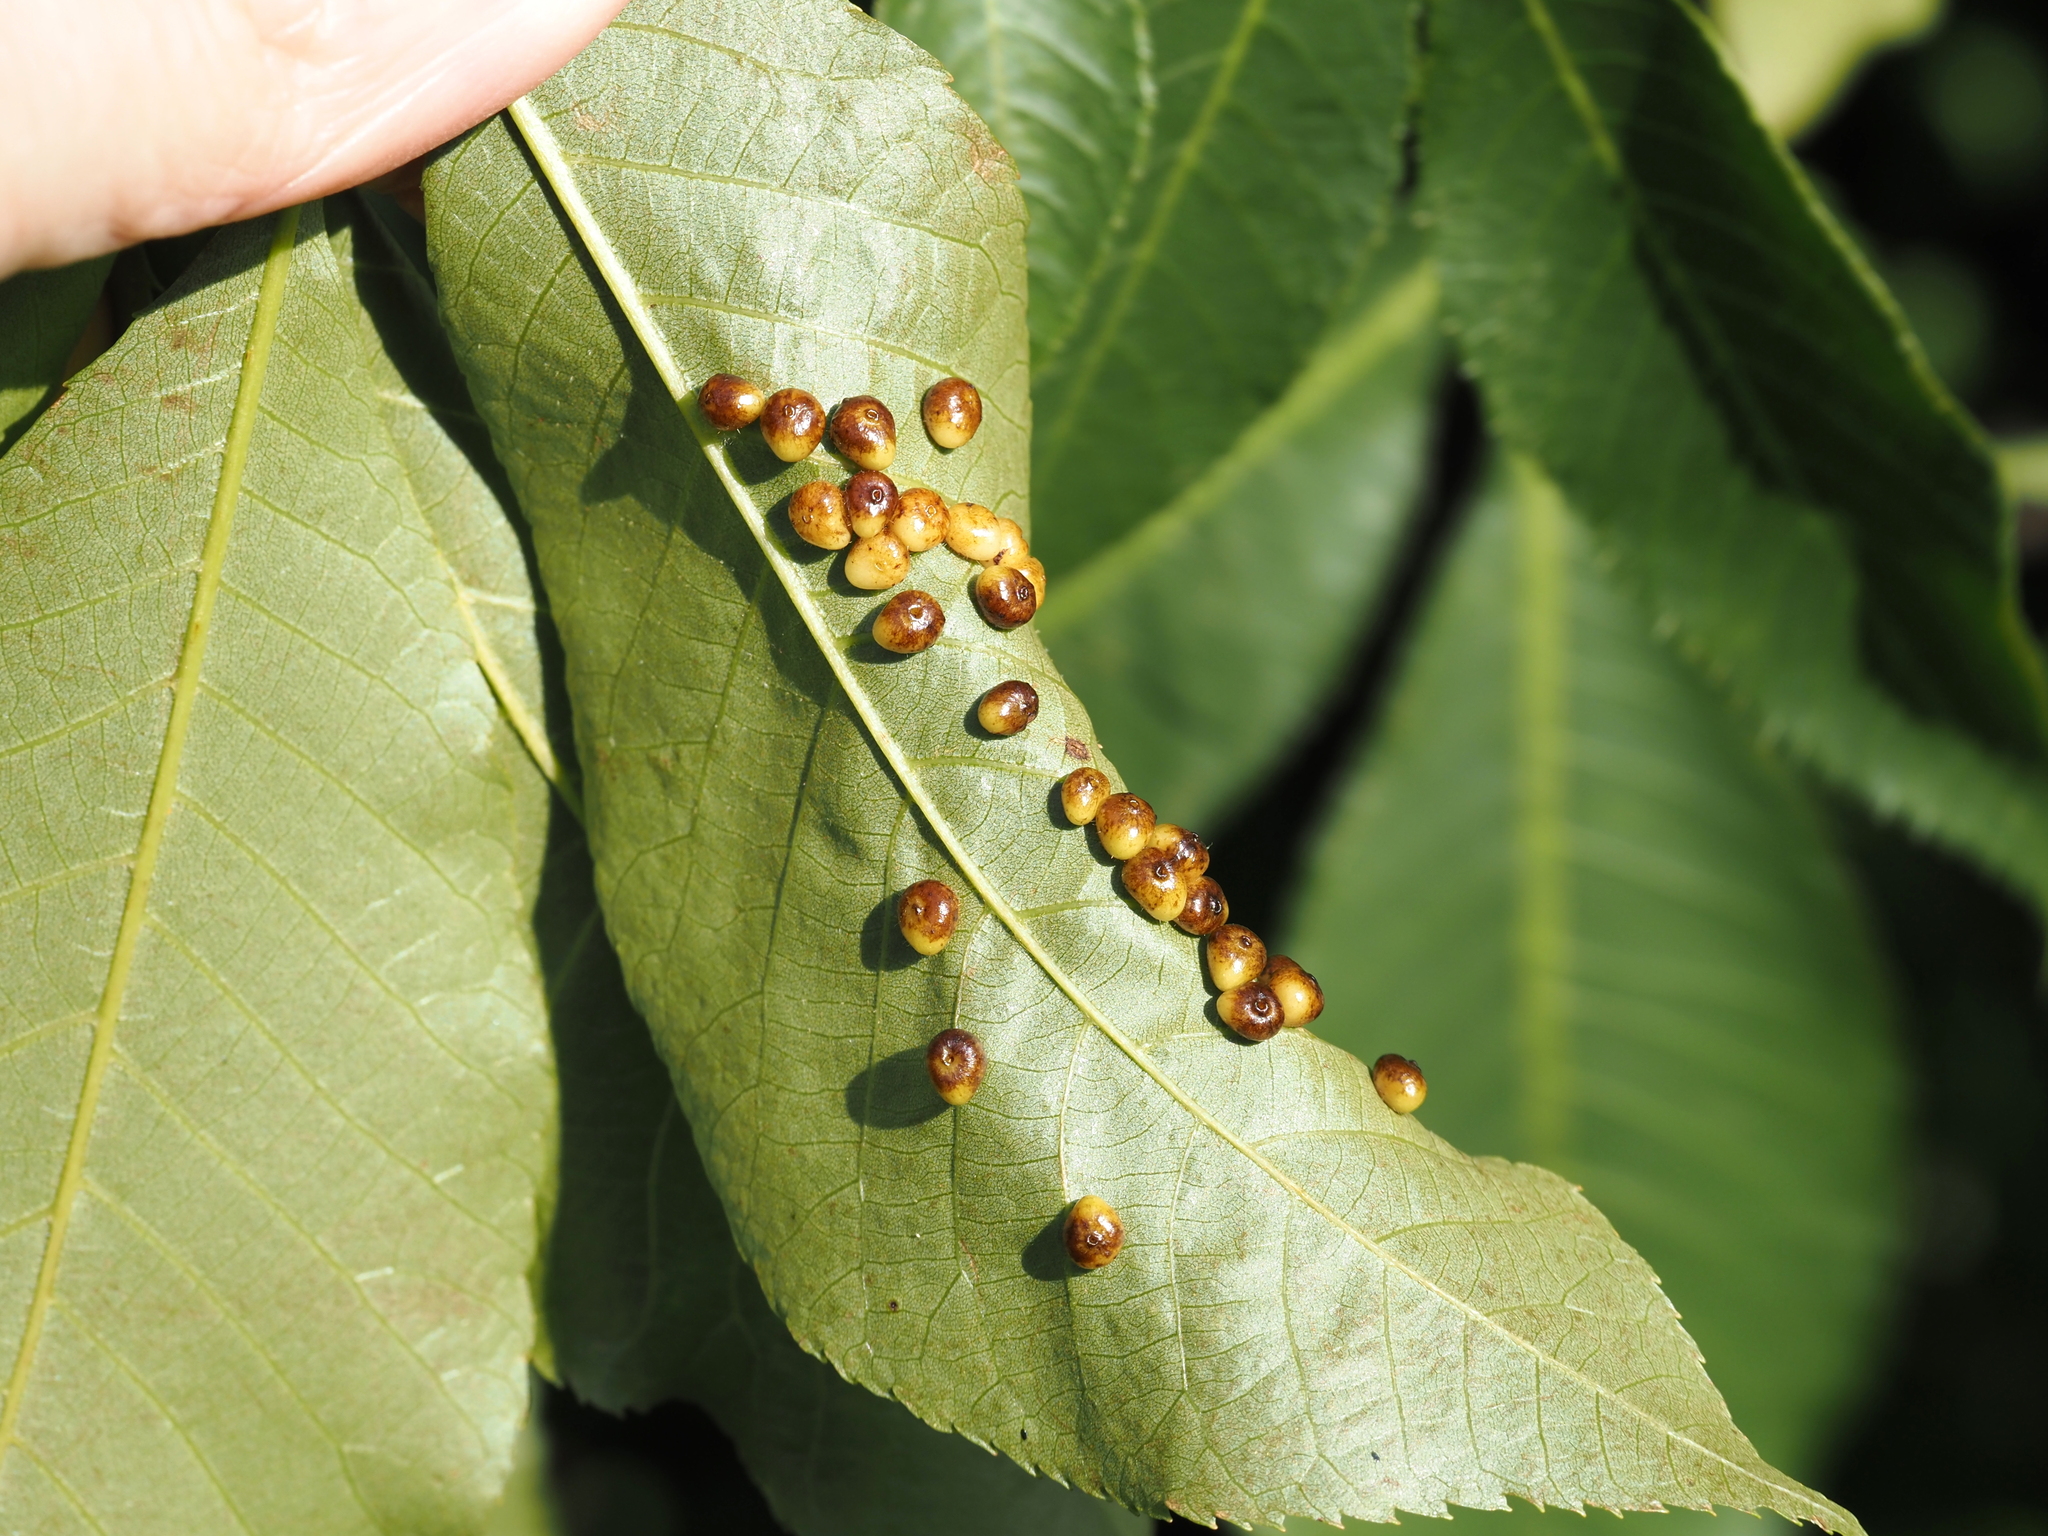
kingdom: Animalia
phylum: Arthropoda
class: Insecta
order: Diptera
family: Cecidomyiidae
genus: Caryomyia
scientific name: Caryomyia caryae
